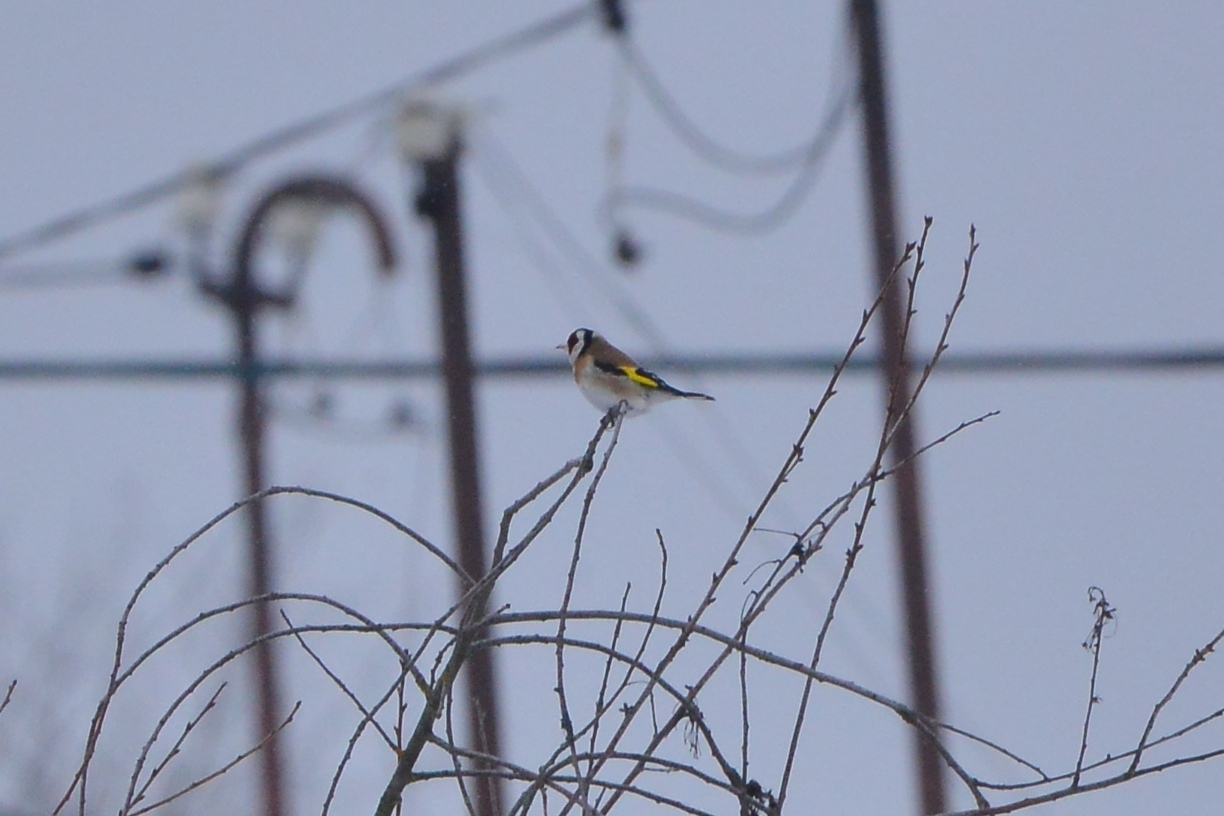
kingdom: Animalia
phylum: Chordata
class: Aves
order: Passeriformes
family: Fringillidae
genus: Carduelis
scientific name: Carduelis carduelis
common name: European goldfinch
